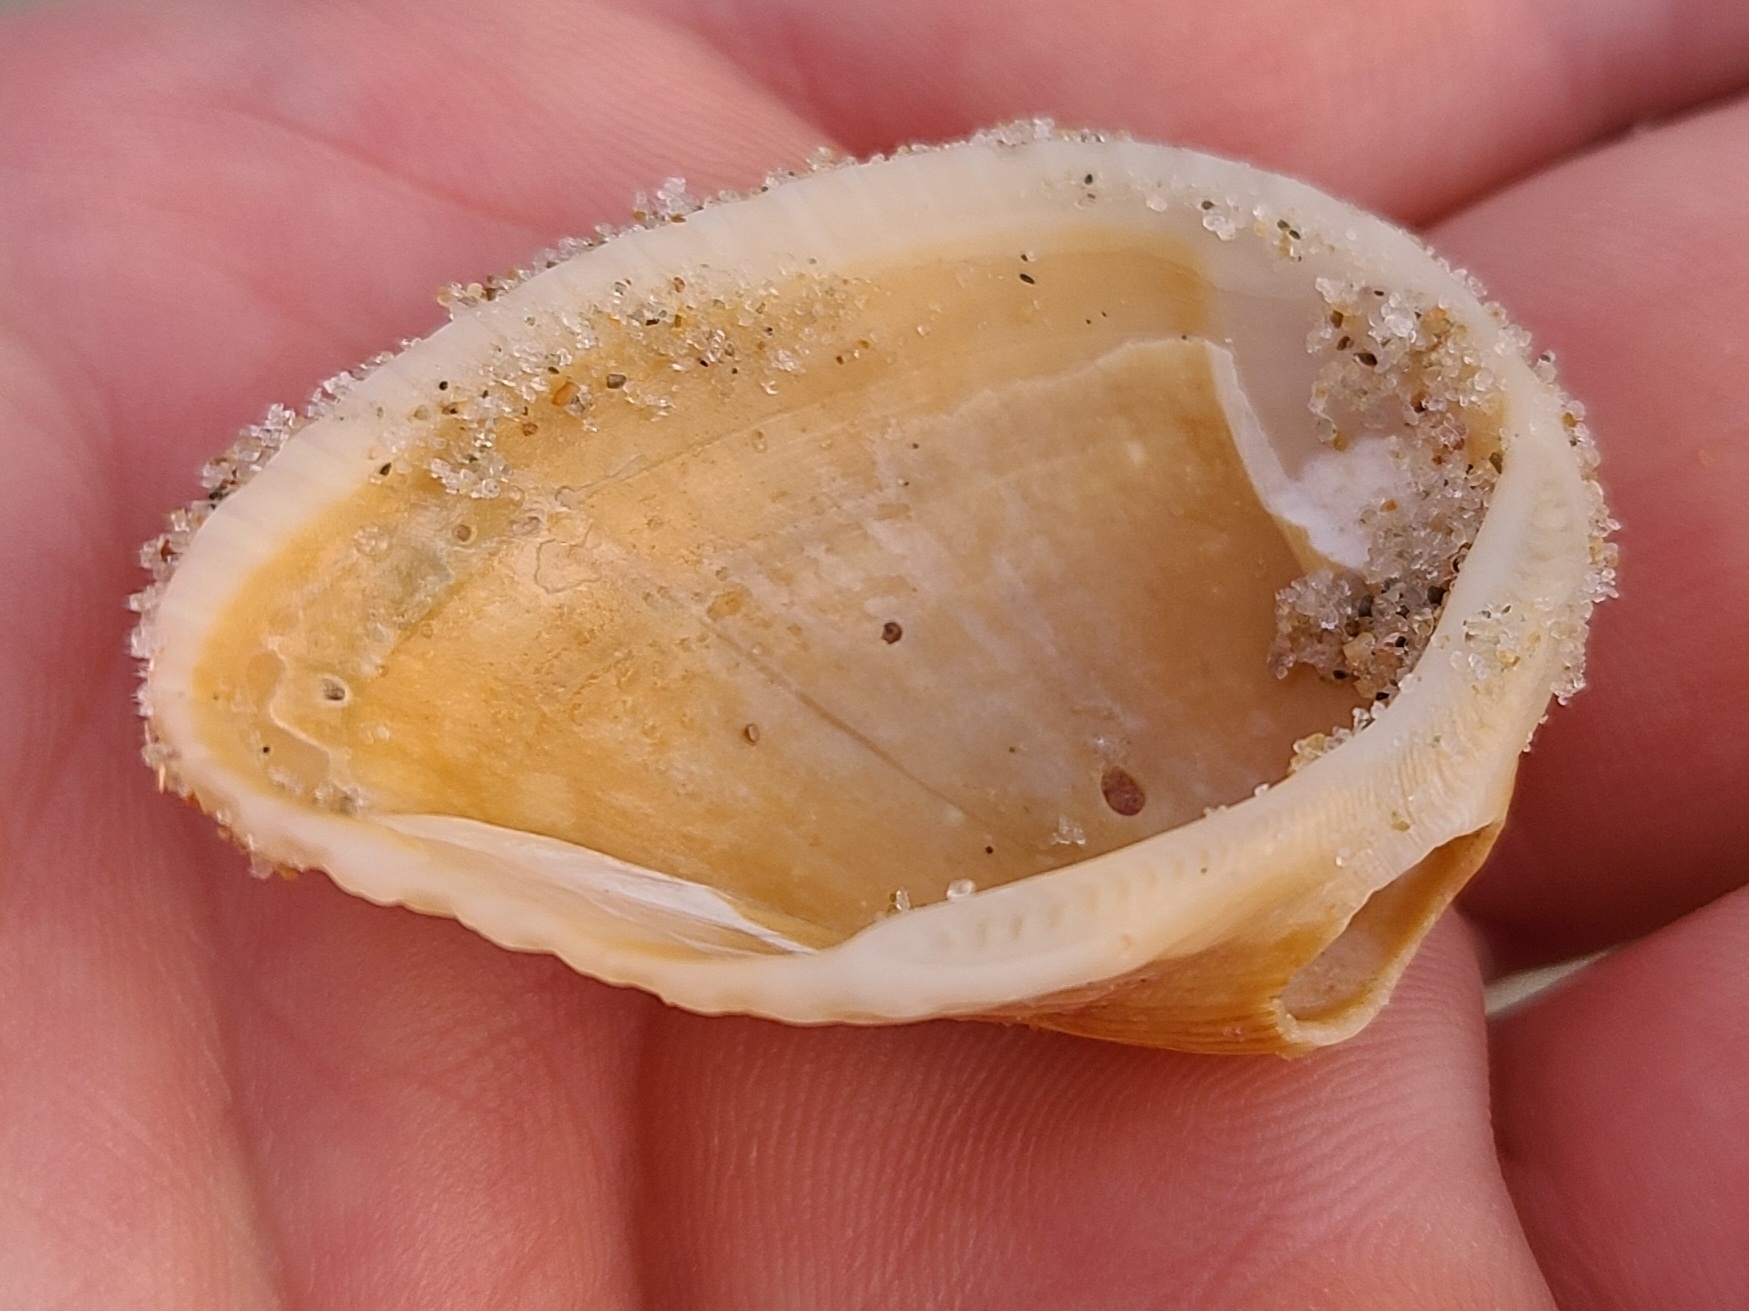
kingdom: Animalia
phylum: Mollusca
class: Bivalvia
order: Arcida
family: Noetiidae
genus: Noetia
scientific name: Noetia ponderosa
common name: Ponderous ark
